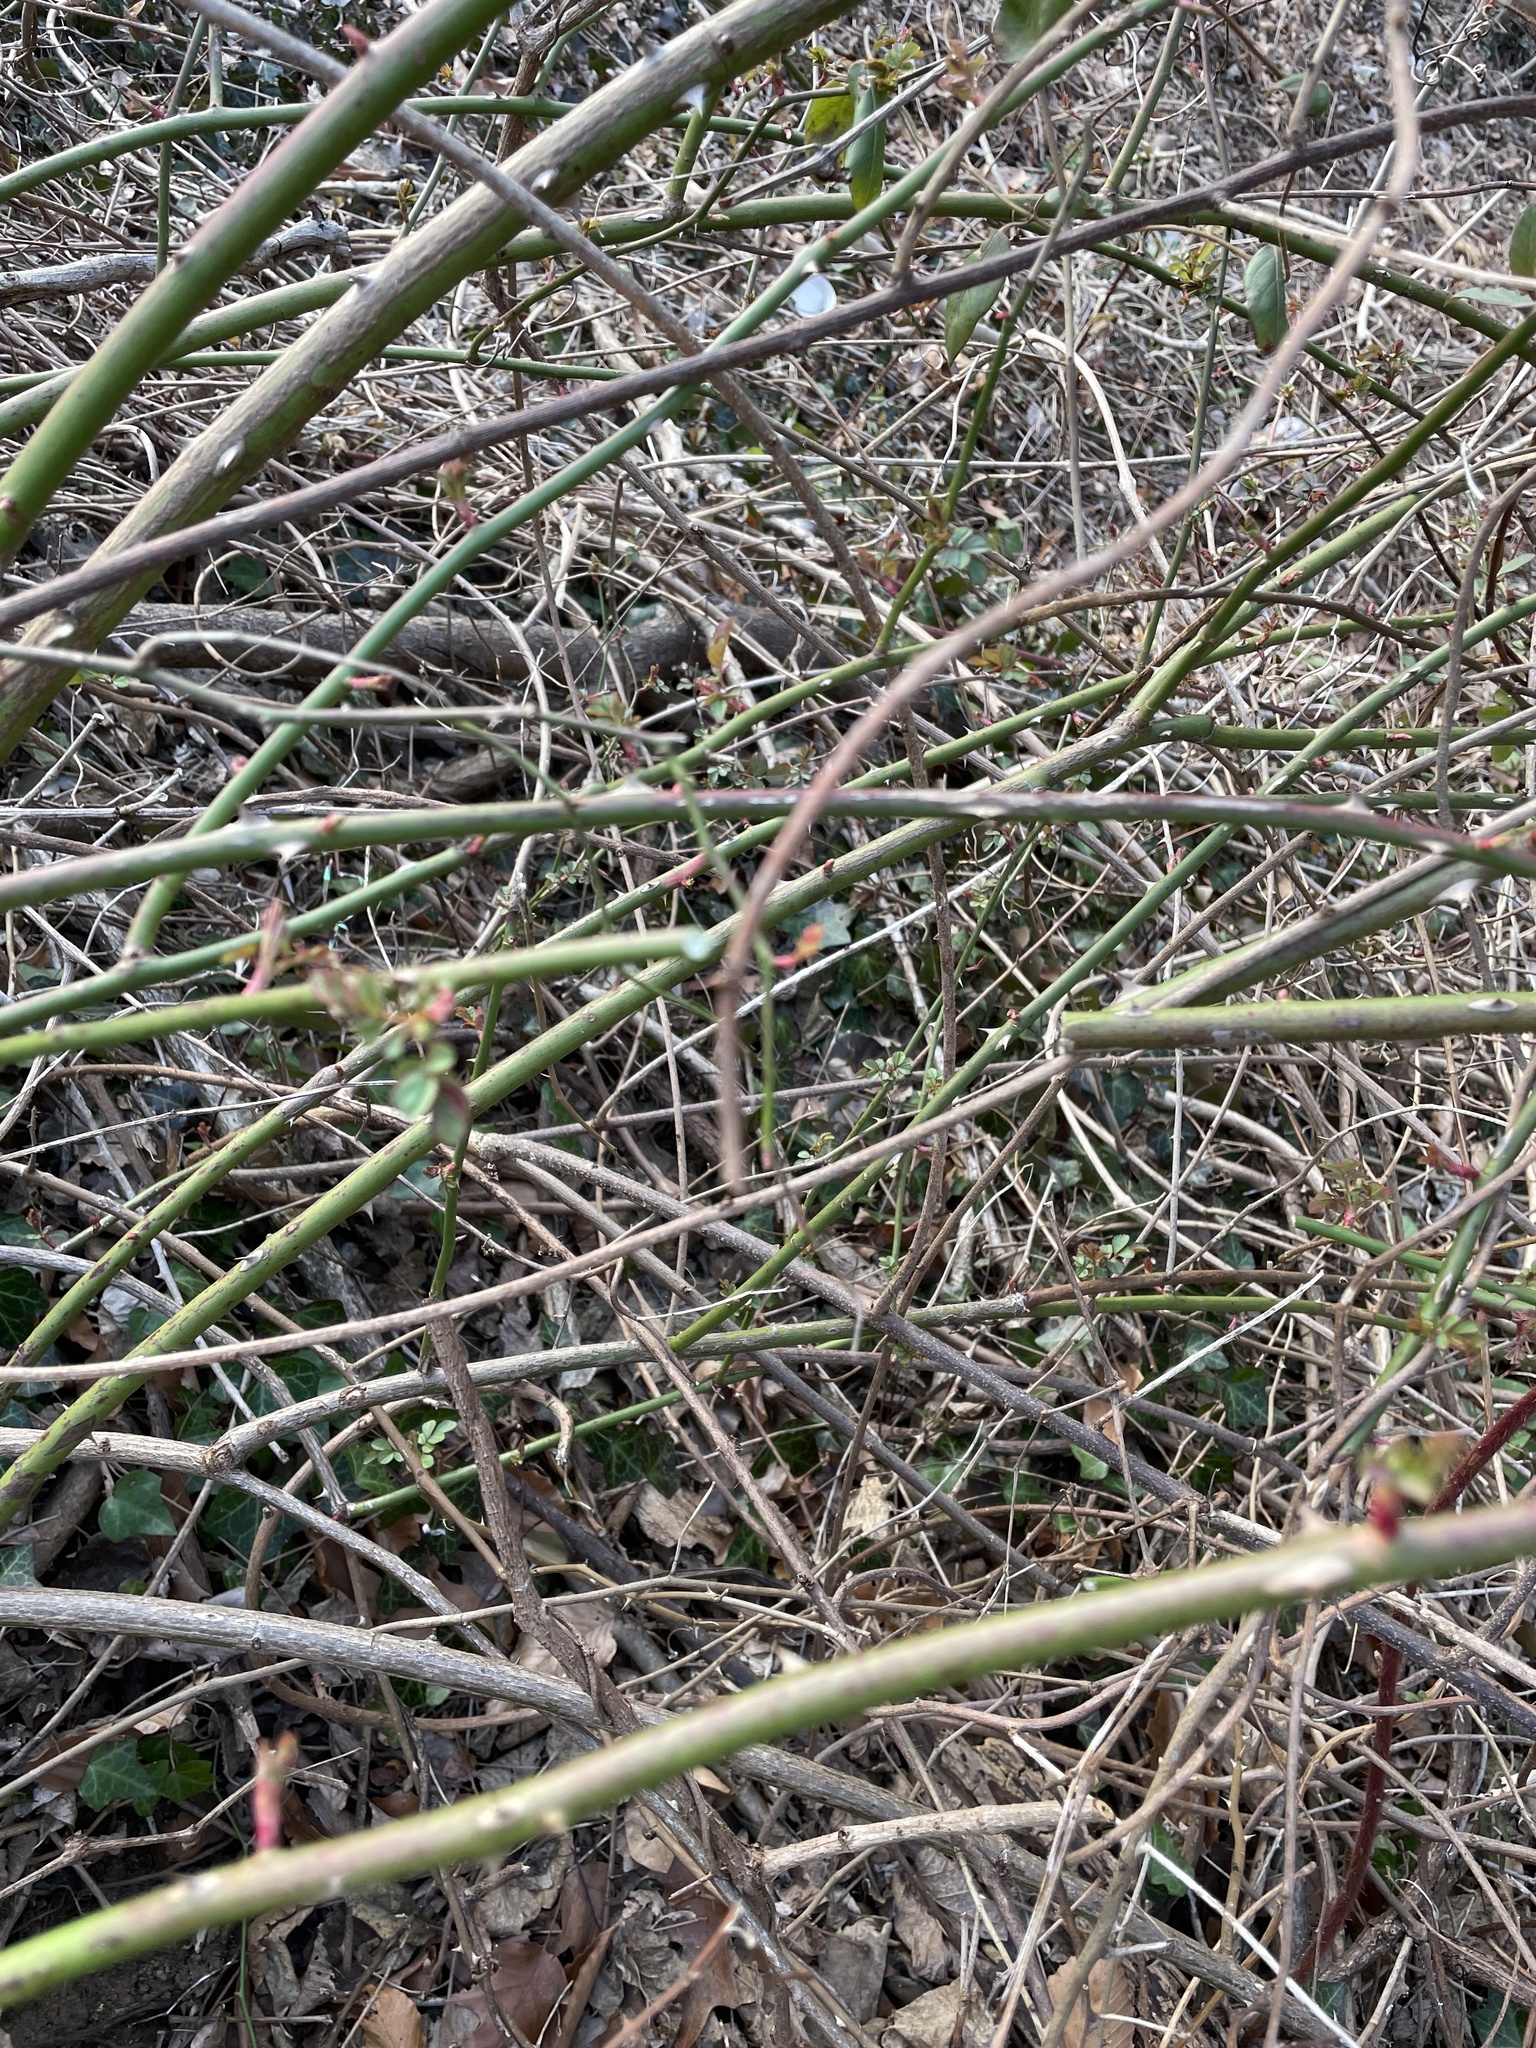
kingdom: Plantae
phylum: Tracheophyta
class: Magnoliopsida
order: Rosales
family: Rosaceae
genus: Rosa
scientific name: Rosa multiflora
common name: Multiflora rose
